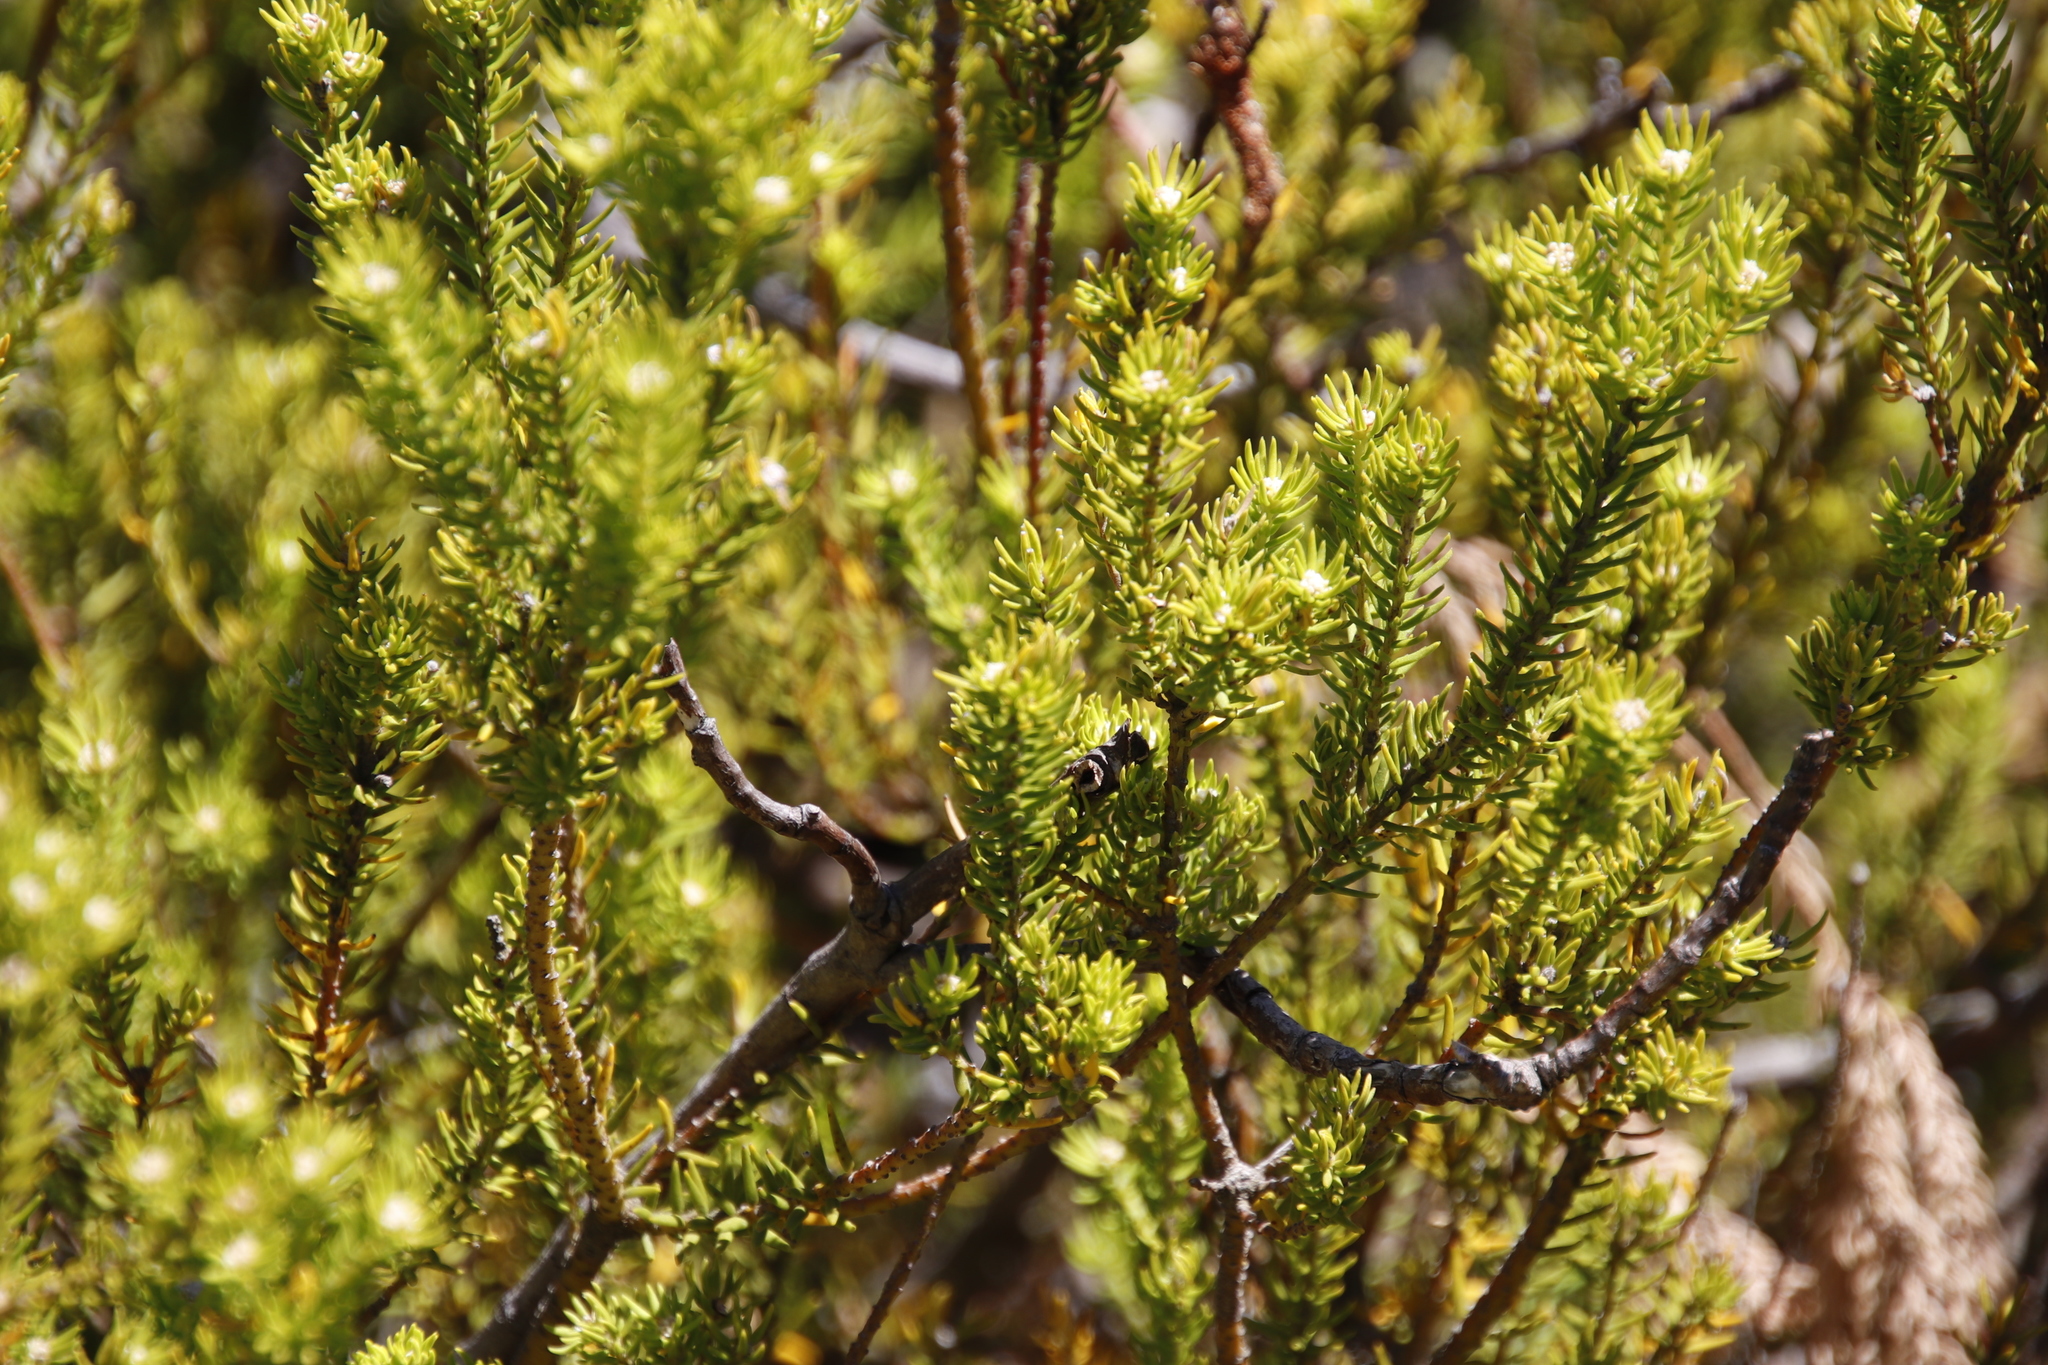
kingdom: Plantae
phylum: Tracheophyta
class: Magnoliopsida
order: Rosales
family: Rhamnaceae
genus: Phylica
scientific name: Phylica minutiflora
